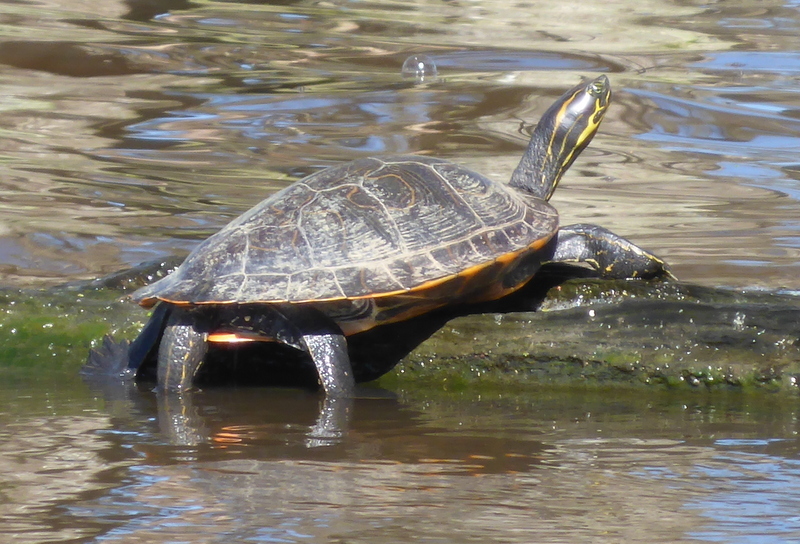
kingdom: Animalia
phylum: Chordata
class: Testudines
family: Emydidae
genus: Pseudemys
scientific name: Pseudemys concinna
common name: Eastern river cooter
